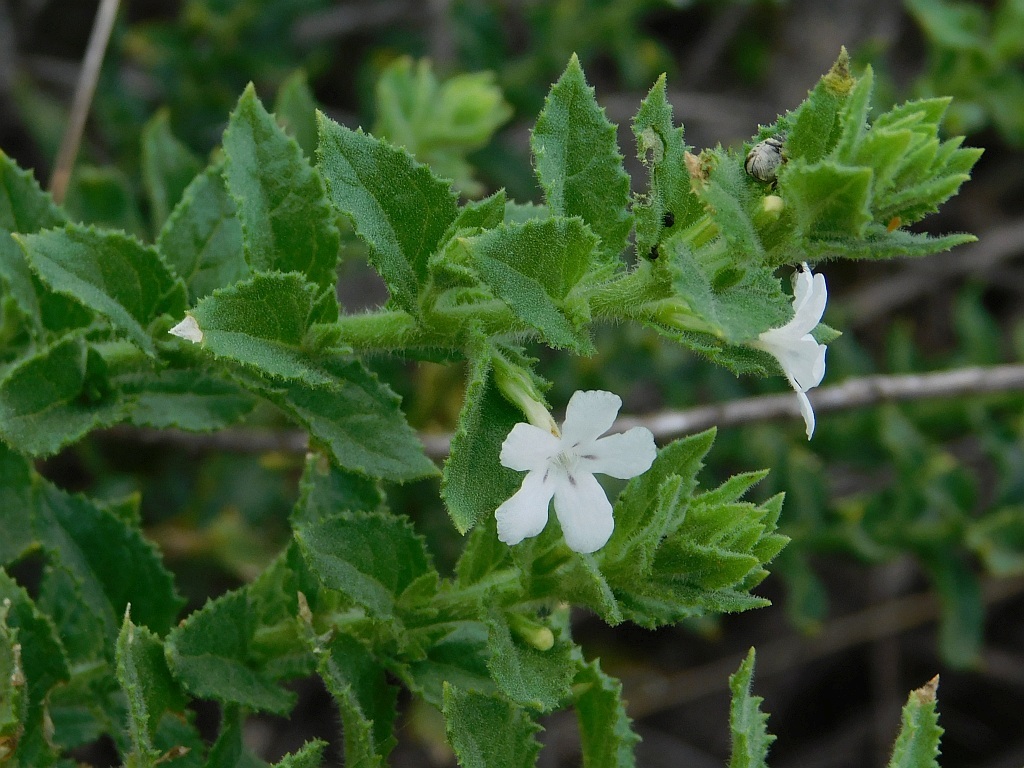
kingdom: Plantae
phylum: Tracheophyta
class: Magnoliopsida
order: Lamiales
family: Scrophulariaceae
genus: Oftia
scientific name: Oftia africana
